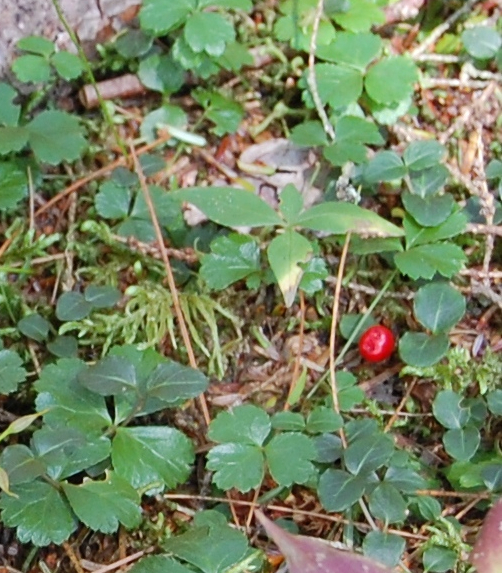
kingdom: Plantae
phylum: Tracheophyta
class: Magnoliopsida
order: Gentianales
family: Rubiaceae
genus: Mitchella
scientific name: Mitchella repens
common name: Partridge-berry
